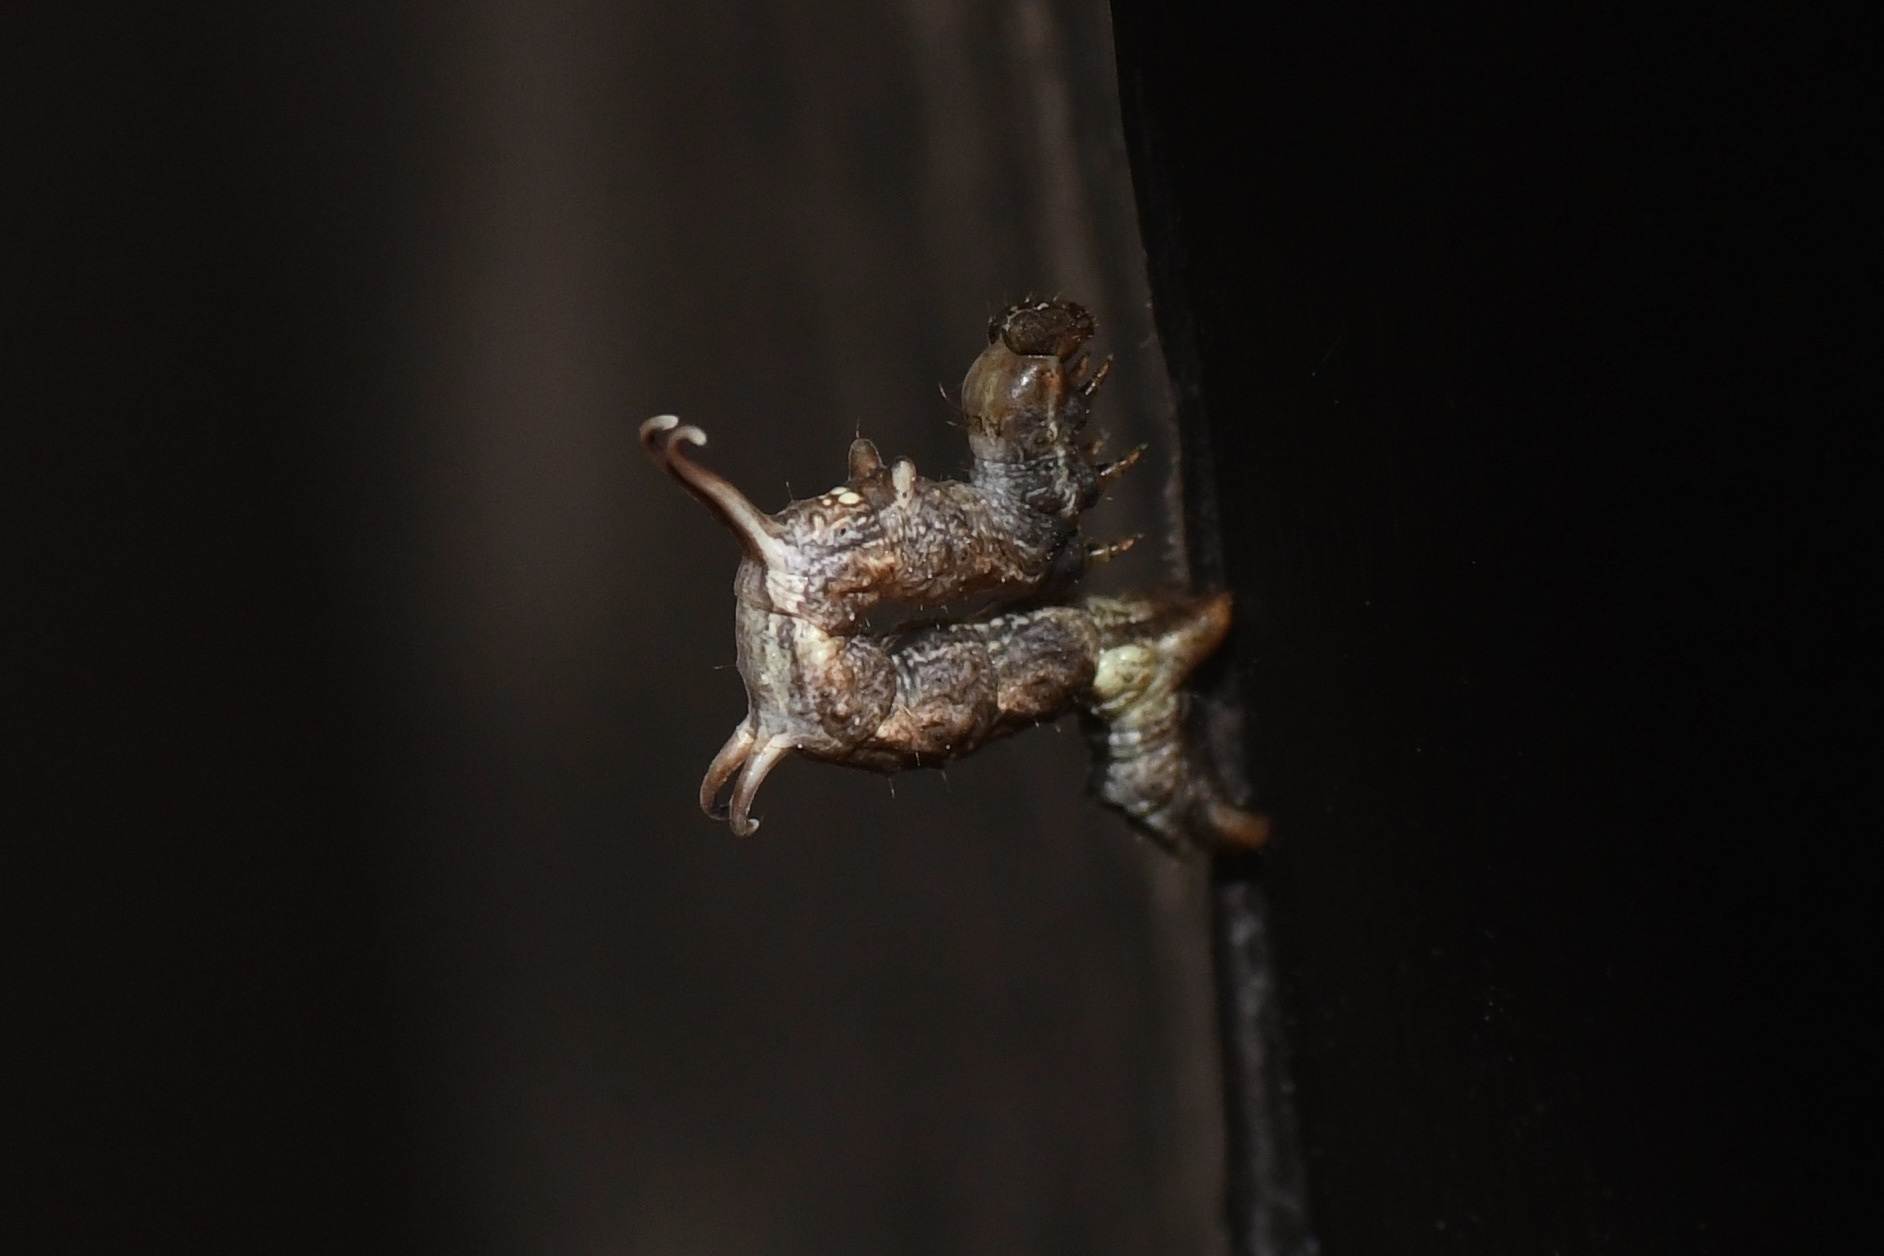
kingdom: Animalia
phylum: Arthropoda
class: Insecta
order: Lepidoptera
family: Geometridae
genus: Nematocampa
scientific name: Nematocampa resistaria
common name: Horned spanworm moth
